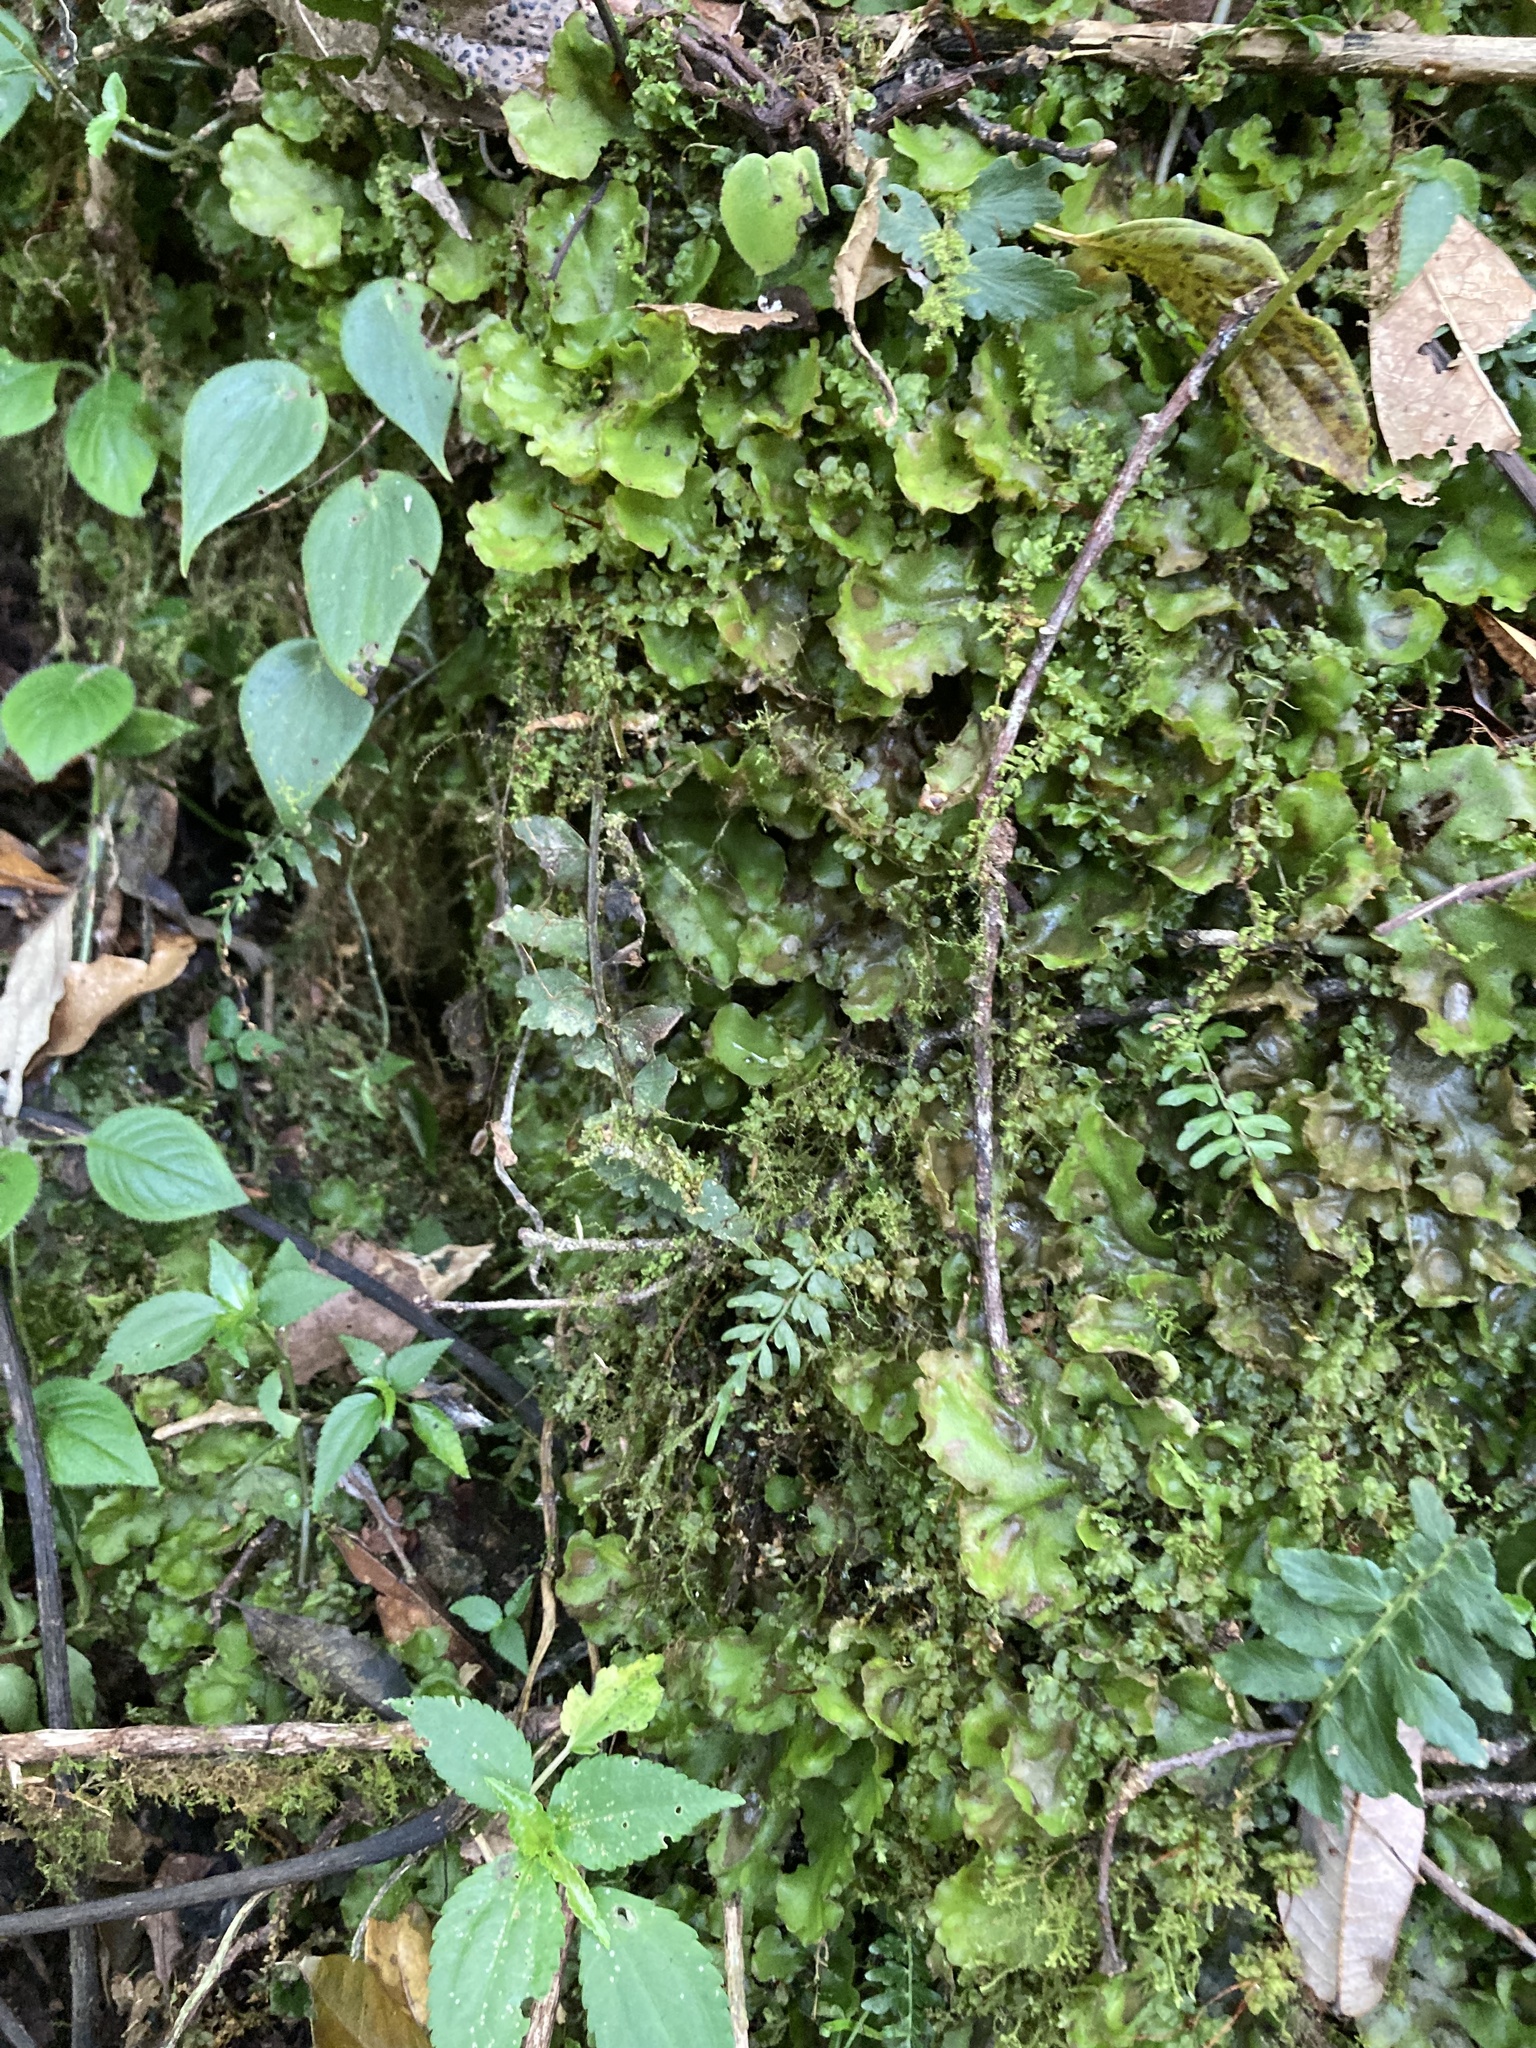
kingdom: Plantae
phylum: Marchantiophyta
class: Marchantiopsida
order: Marchantiales
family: Monocleaceae
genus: Monoclea
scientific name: Monoclea gottschei
